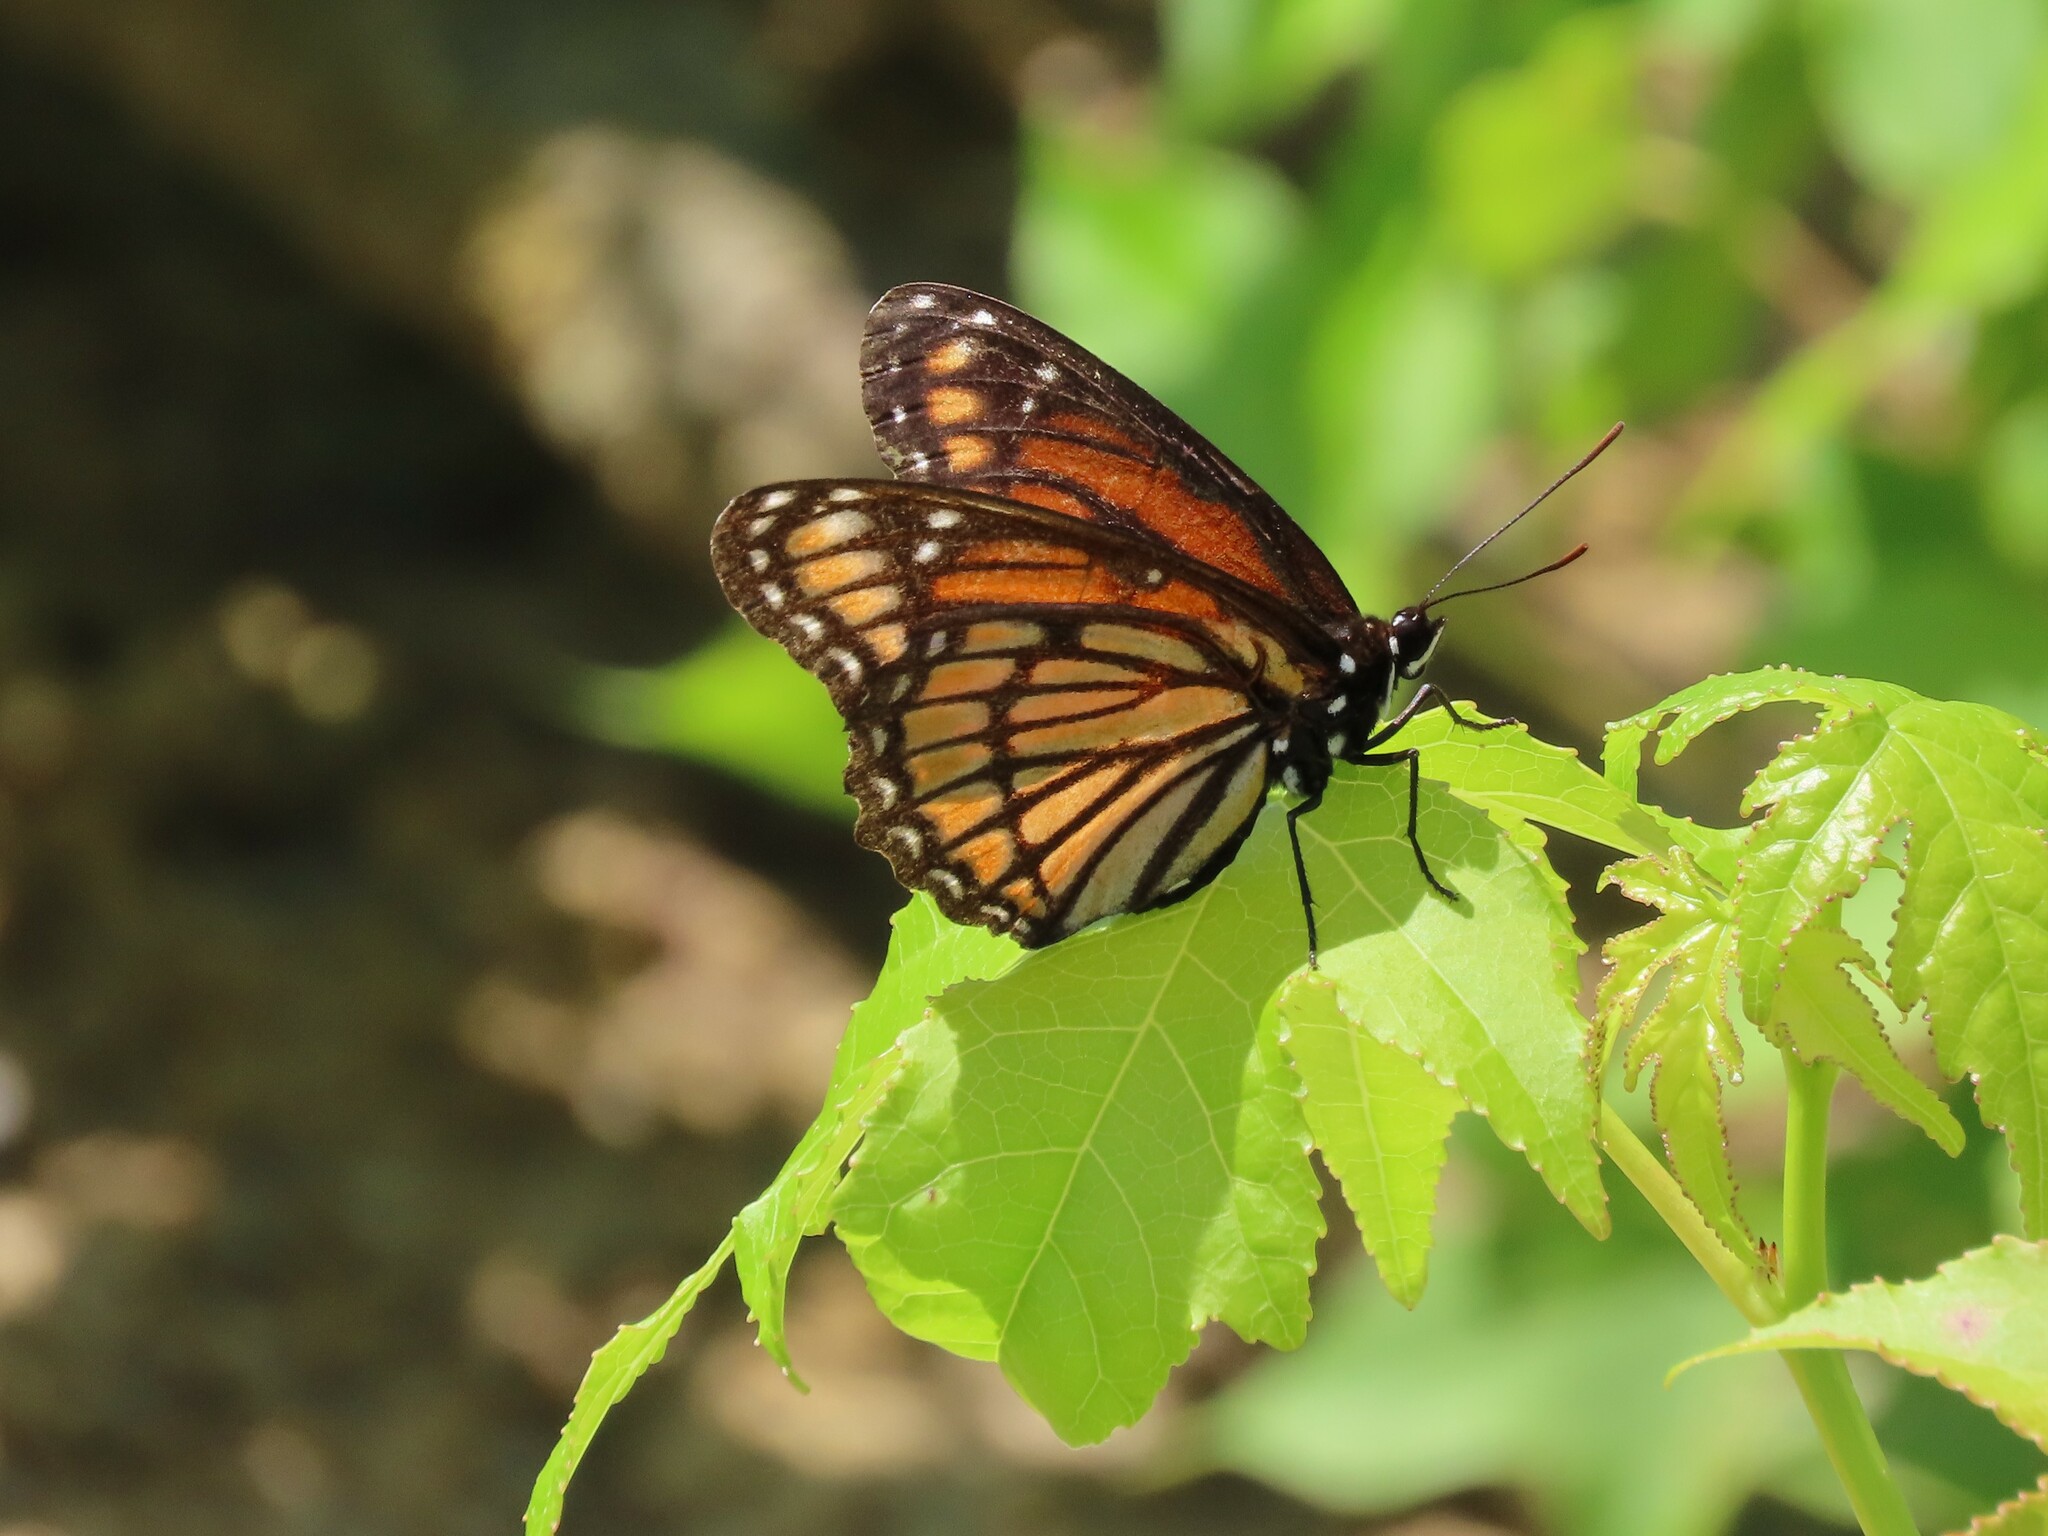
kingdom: Animalia
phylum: Arthropoda
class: Insecta
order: Lepidoptera
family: Nymphalidae
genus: Limenitis
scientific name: Limenitis archippus
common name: Viceroy
